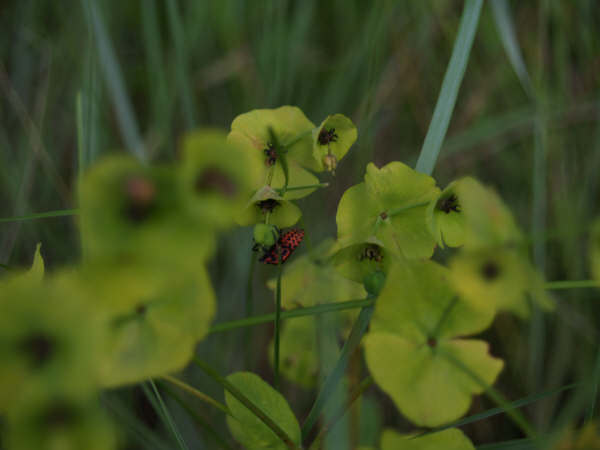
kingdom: Animalia
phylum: Arthropoda
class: Insecta
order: Hemiptera
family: Pentatomidae
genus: Graphosoma
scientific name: Graphosoma italicum
